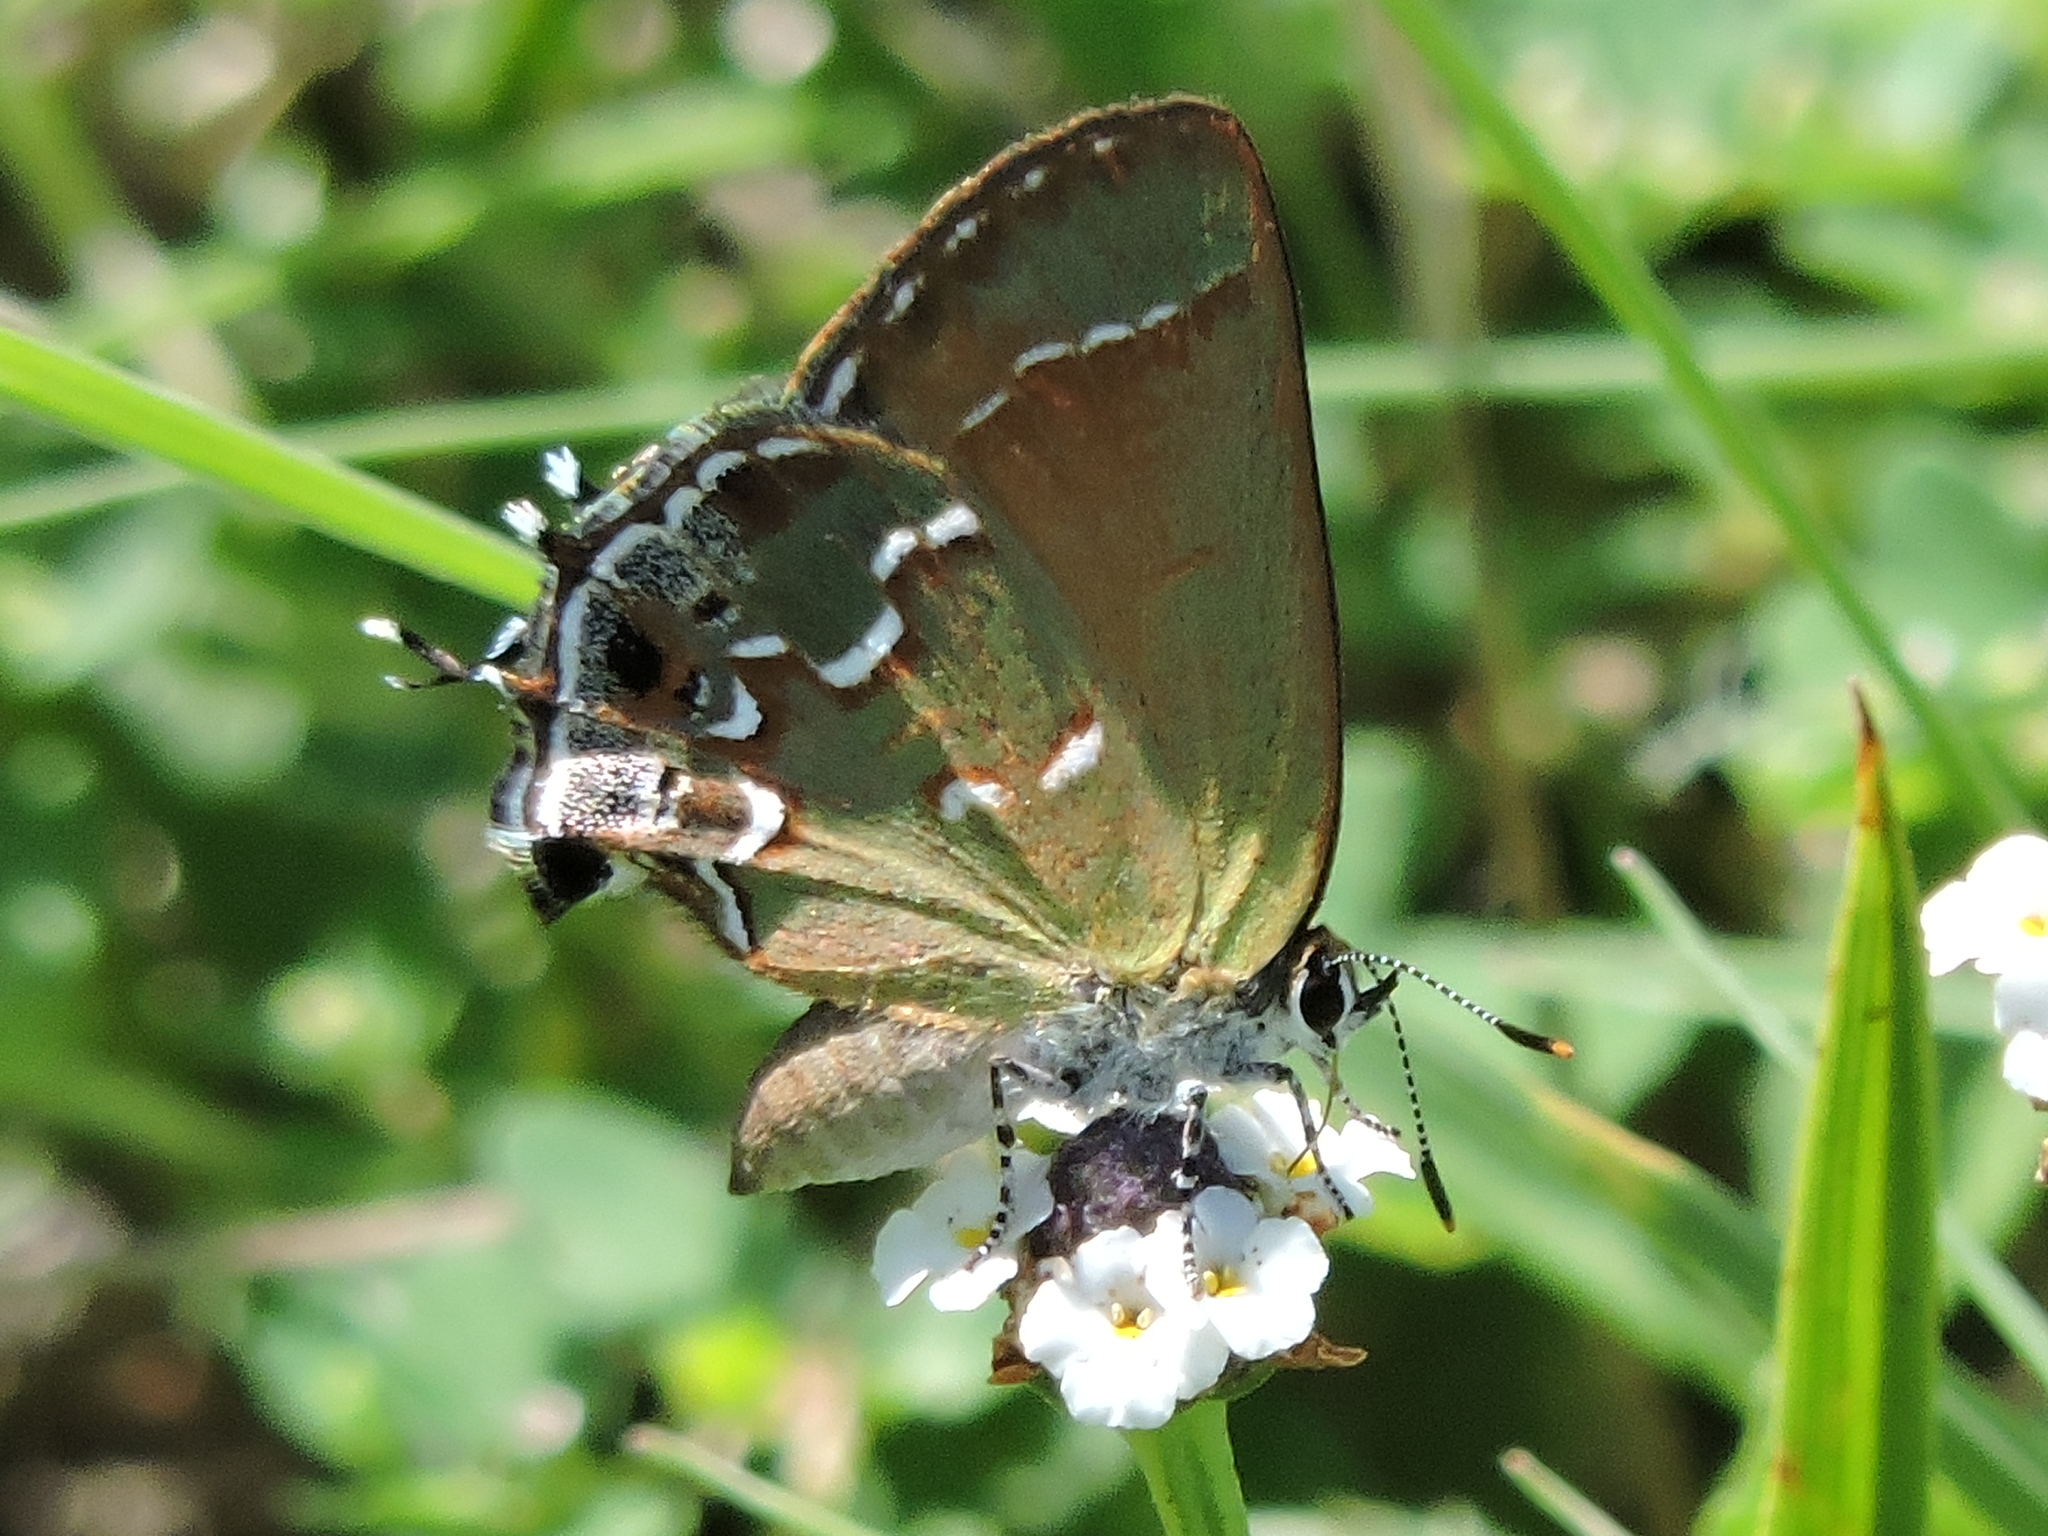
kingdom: Animalia
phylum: Arthropoda
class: Insecta
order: Lepidoptera
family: Lycaenidae
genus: Mitoura
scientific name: Mitoura gryneus
